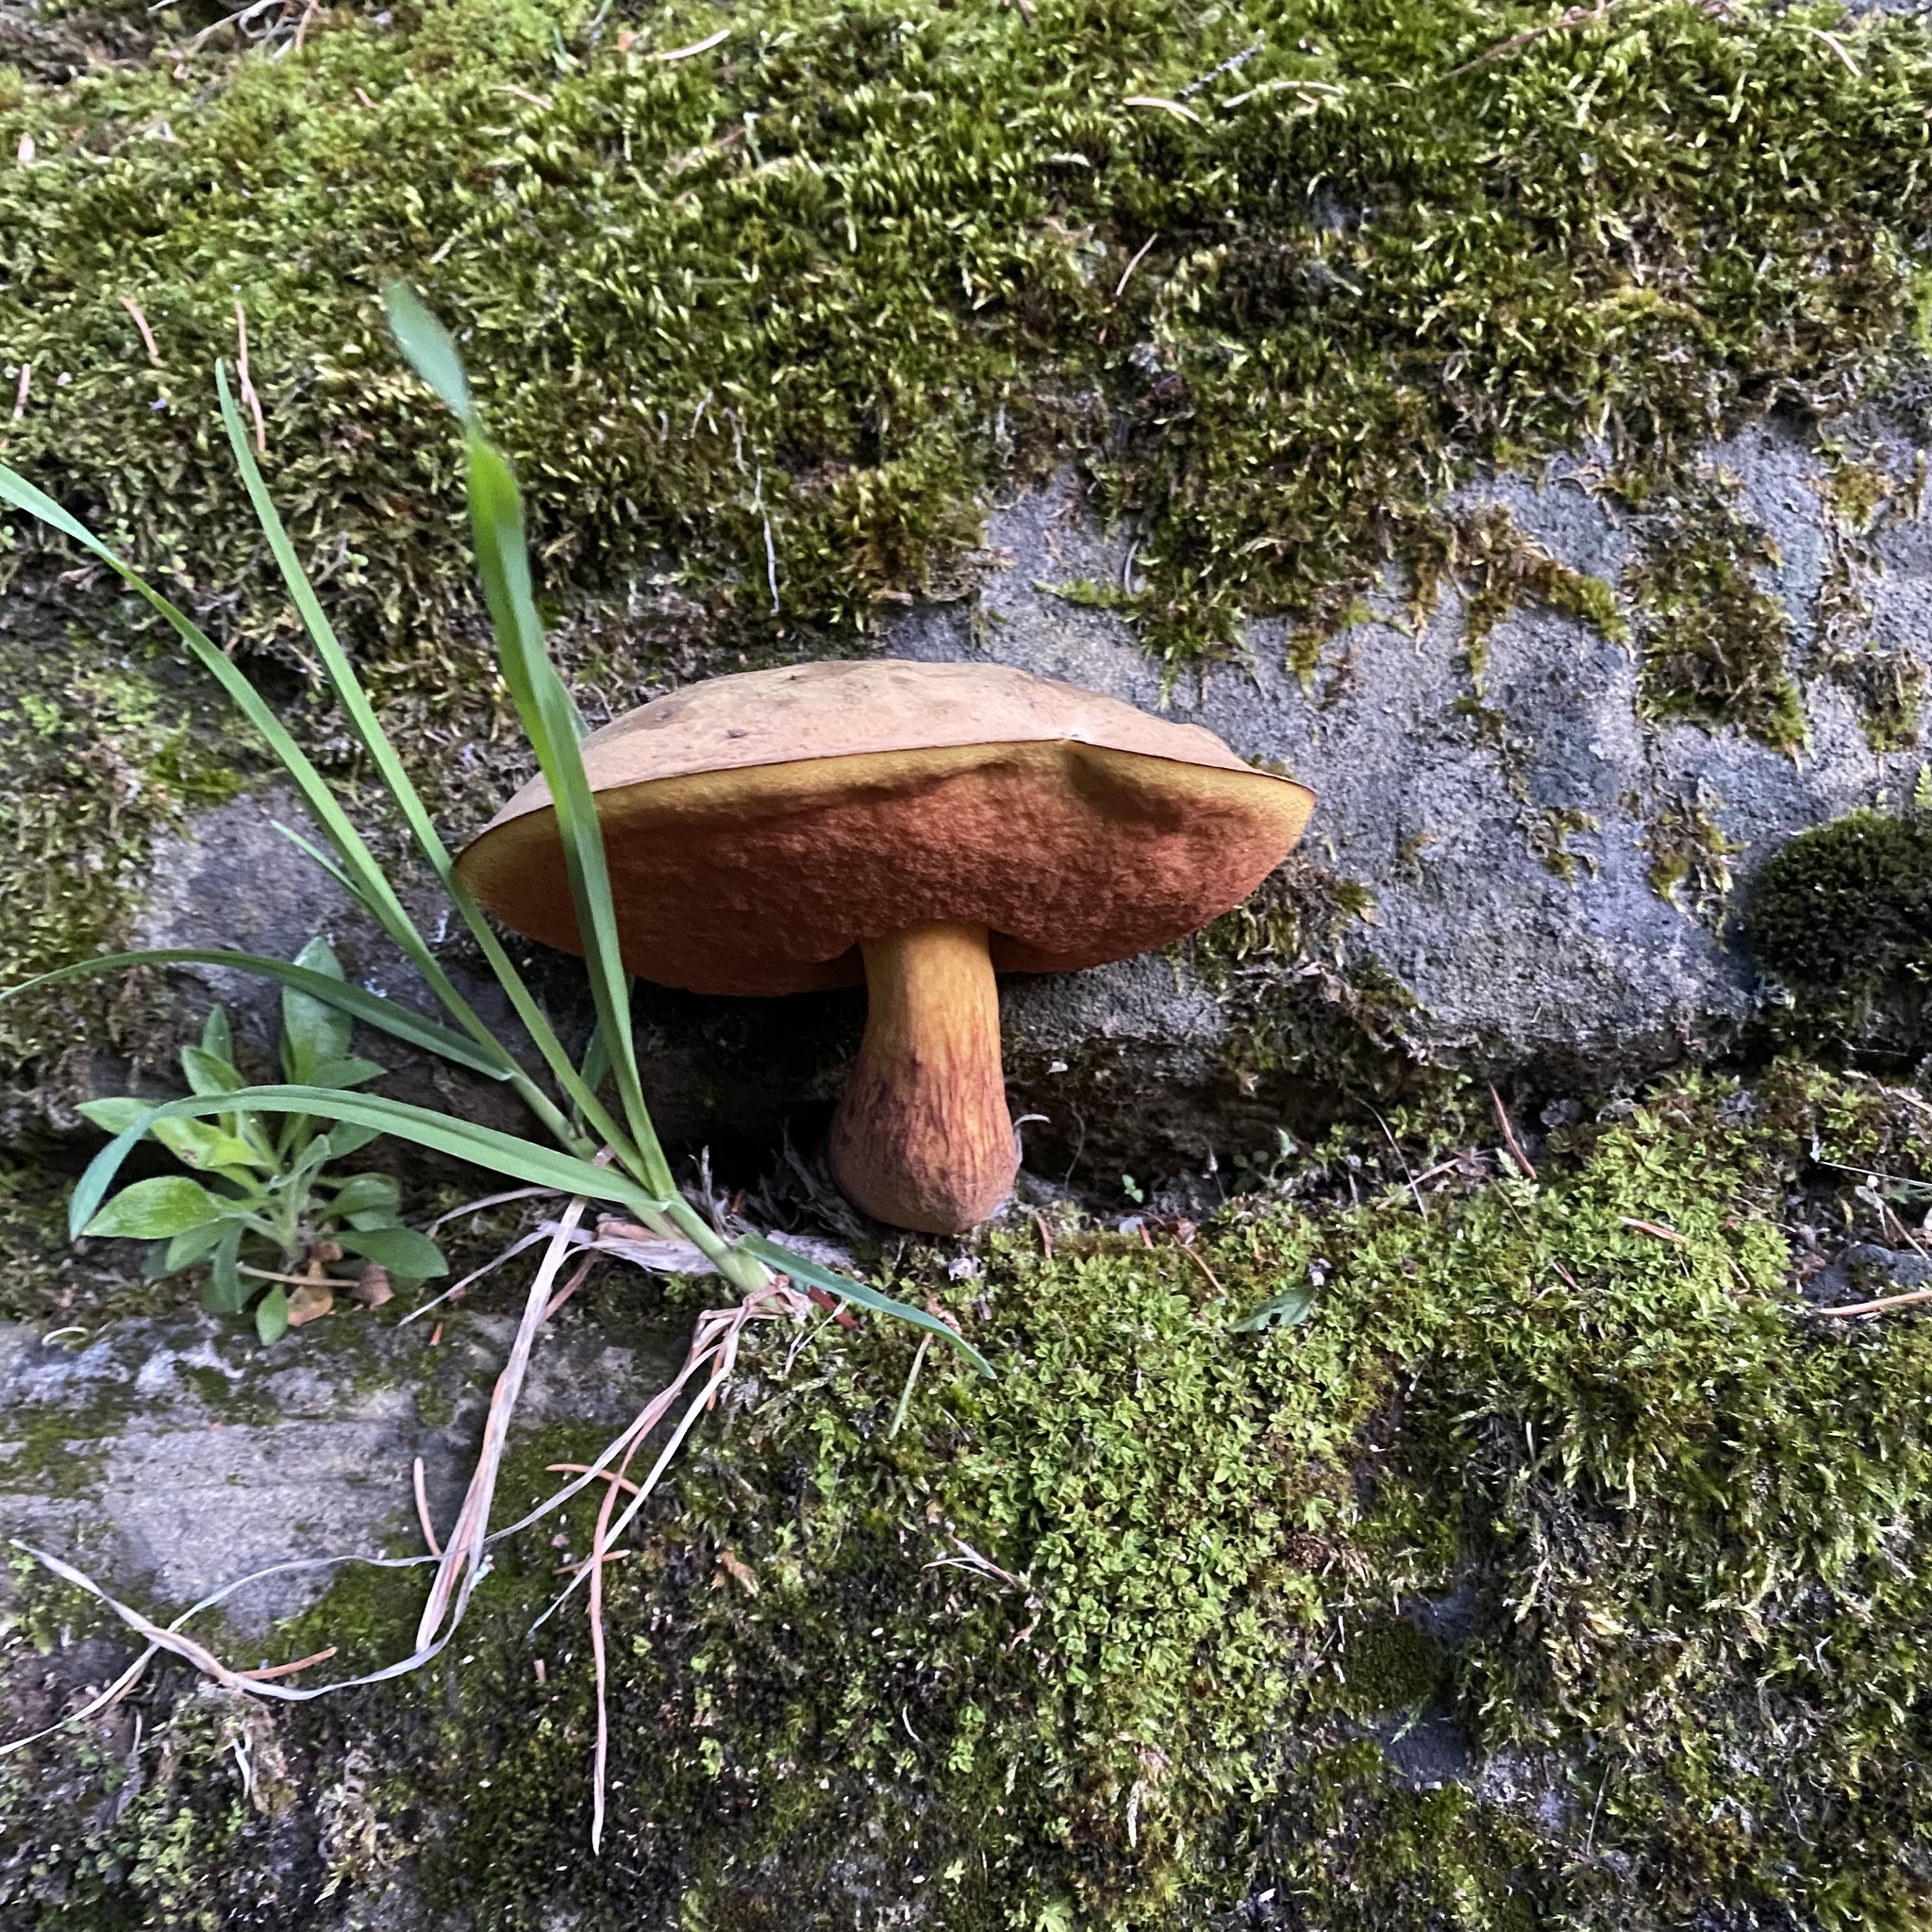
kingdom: Fungi
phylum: Basidiomycota
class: Agaricomycetes
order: Boletales
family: Boletaceae
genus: Suillellus
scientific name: Suillellus luridus
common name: Lurid bolete
